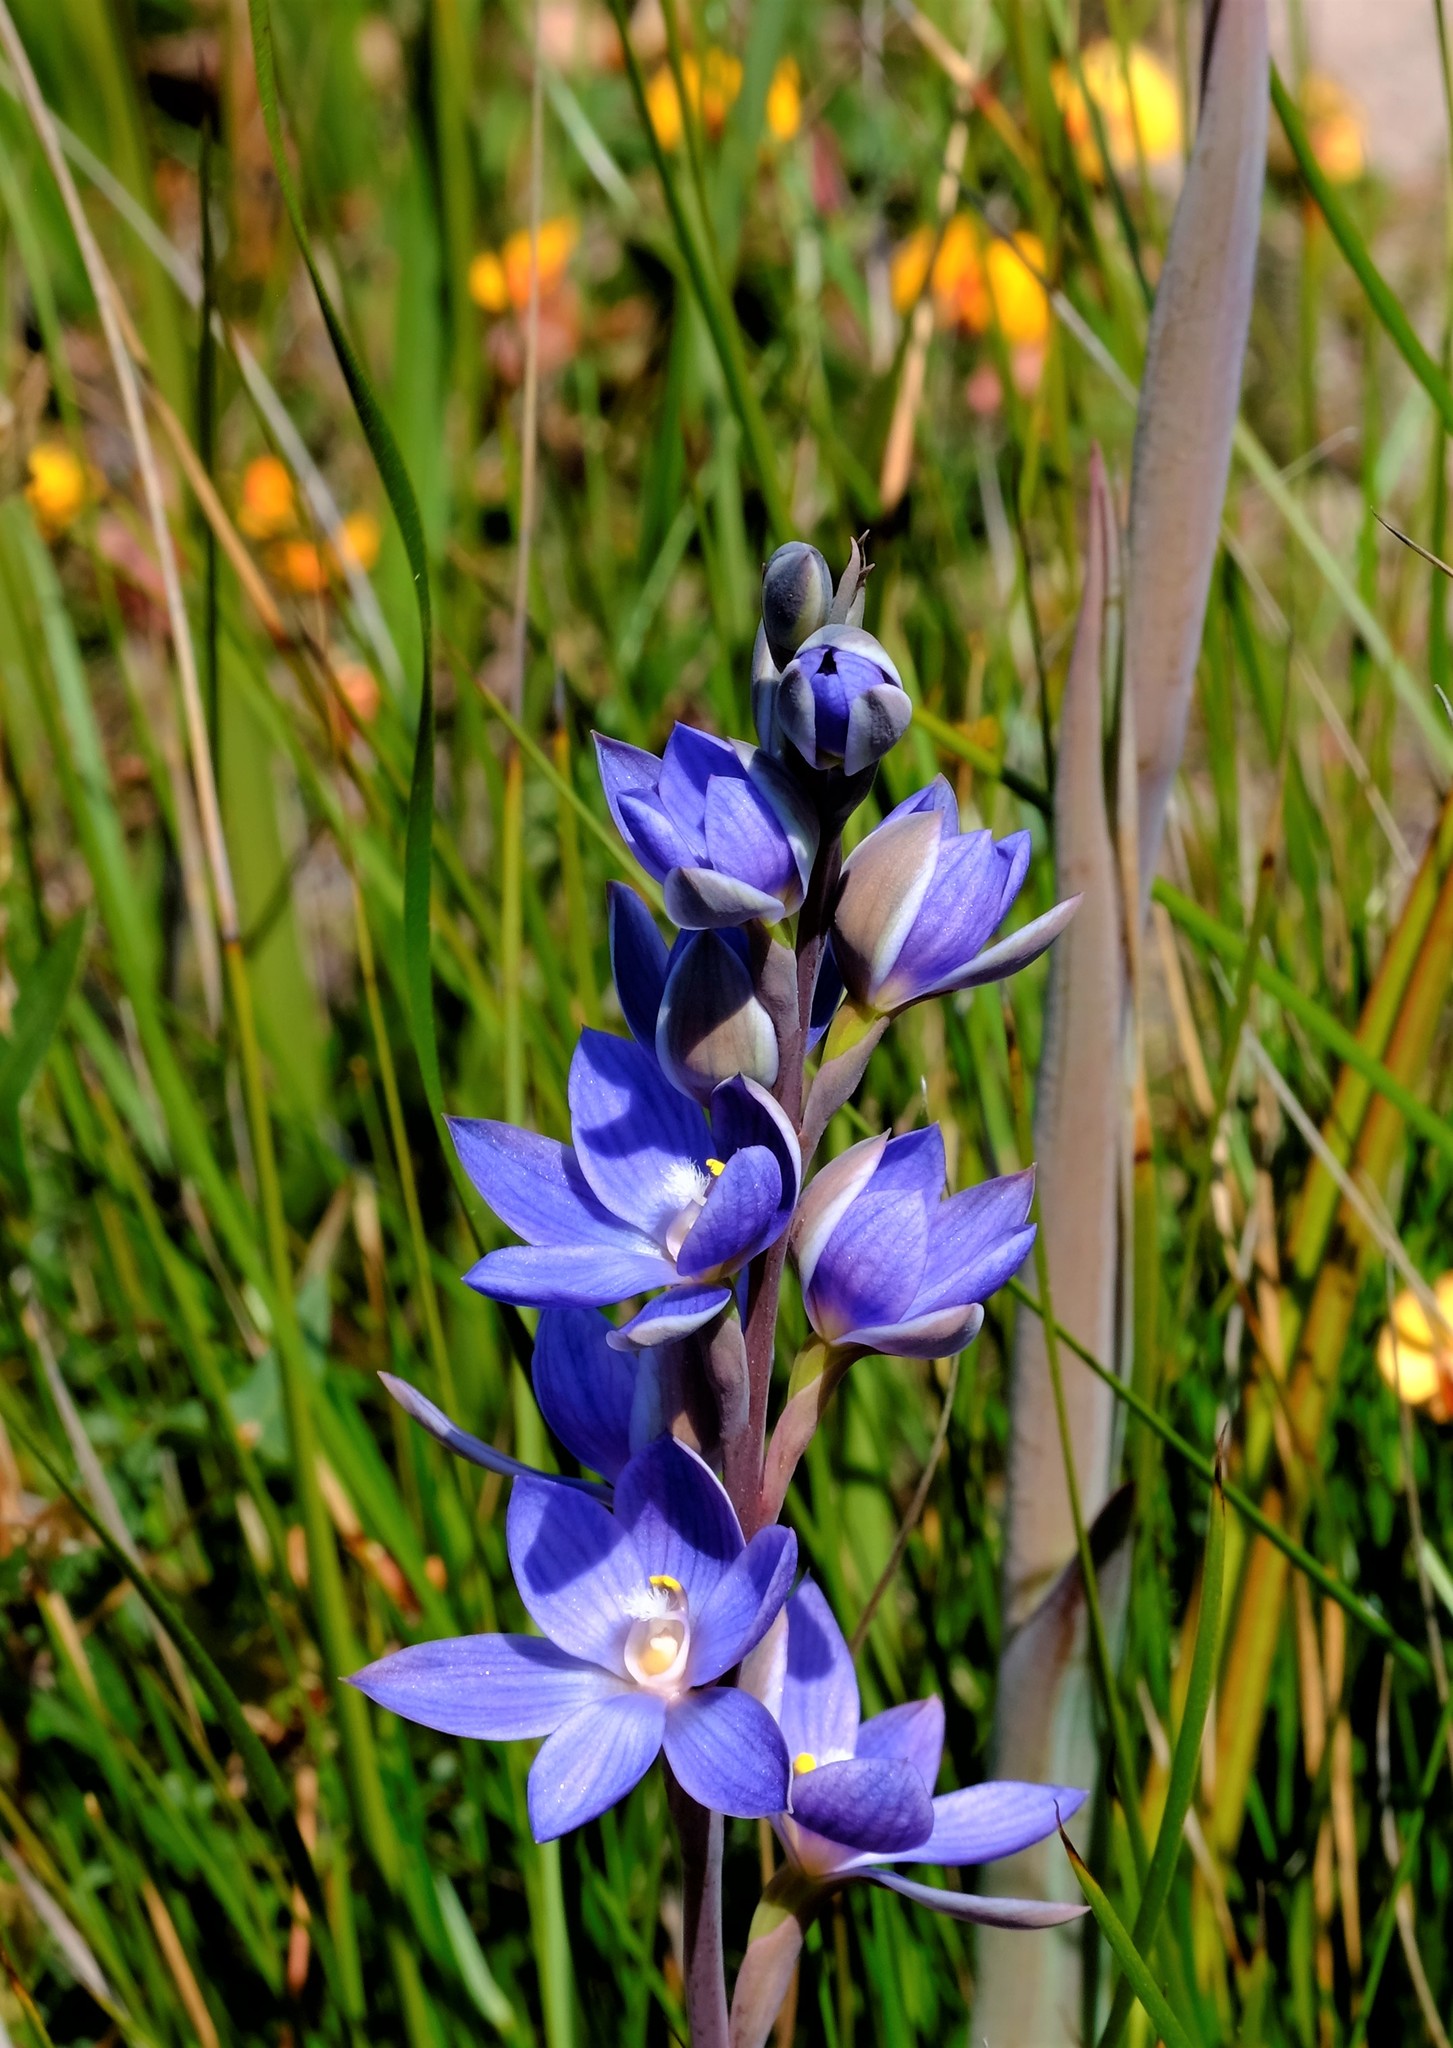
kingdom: Plantae
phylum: Tracheophyta
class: Liliopsida
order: Asparagales
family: Orchidaceae
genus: Thelymitra
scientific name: Thelymitra aristata
